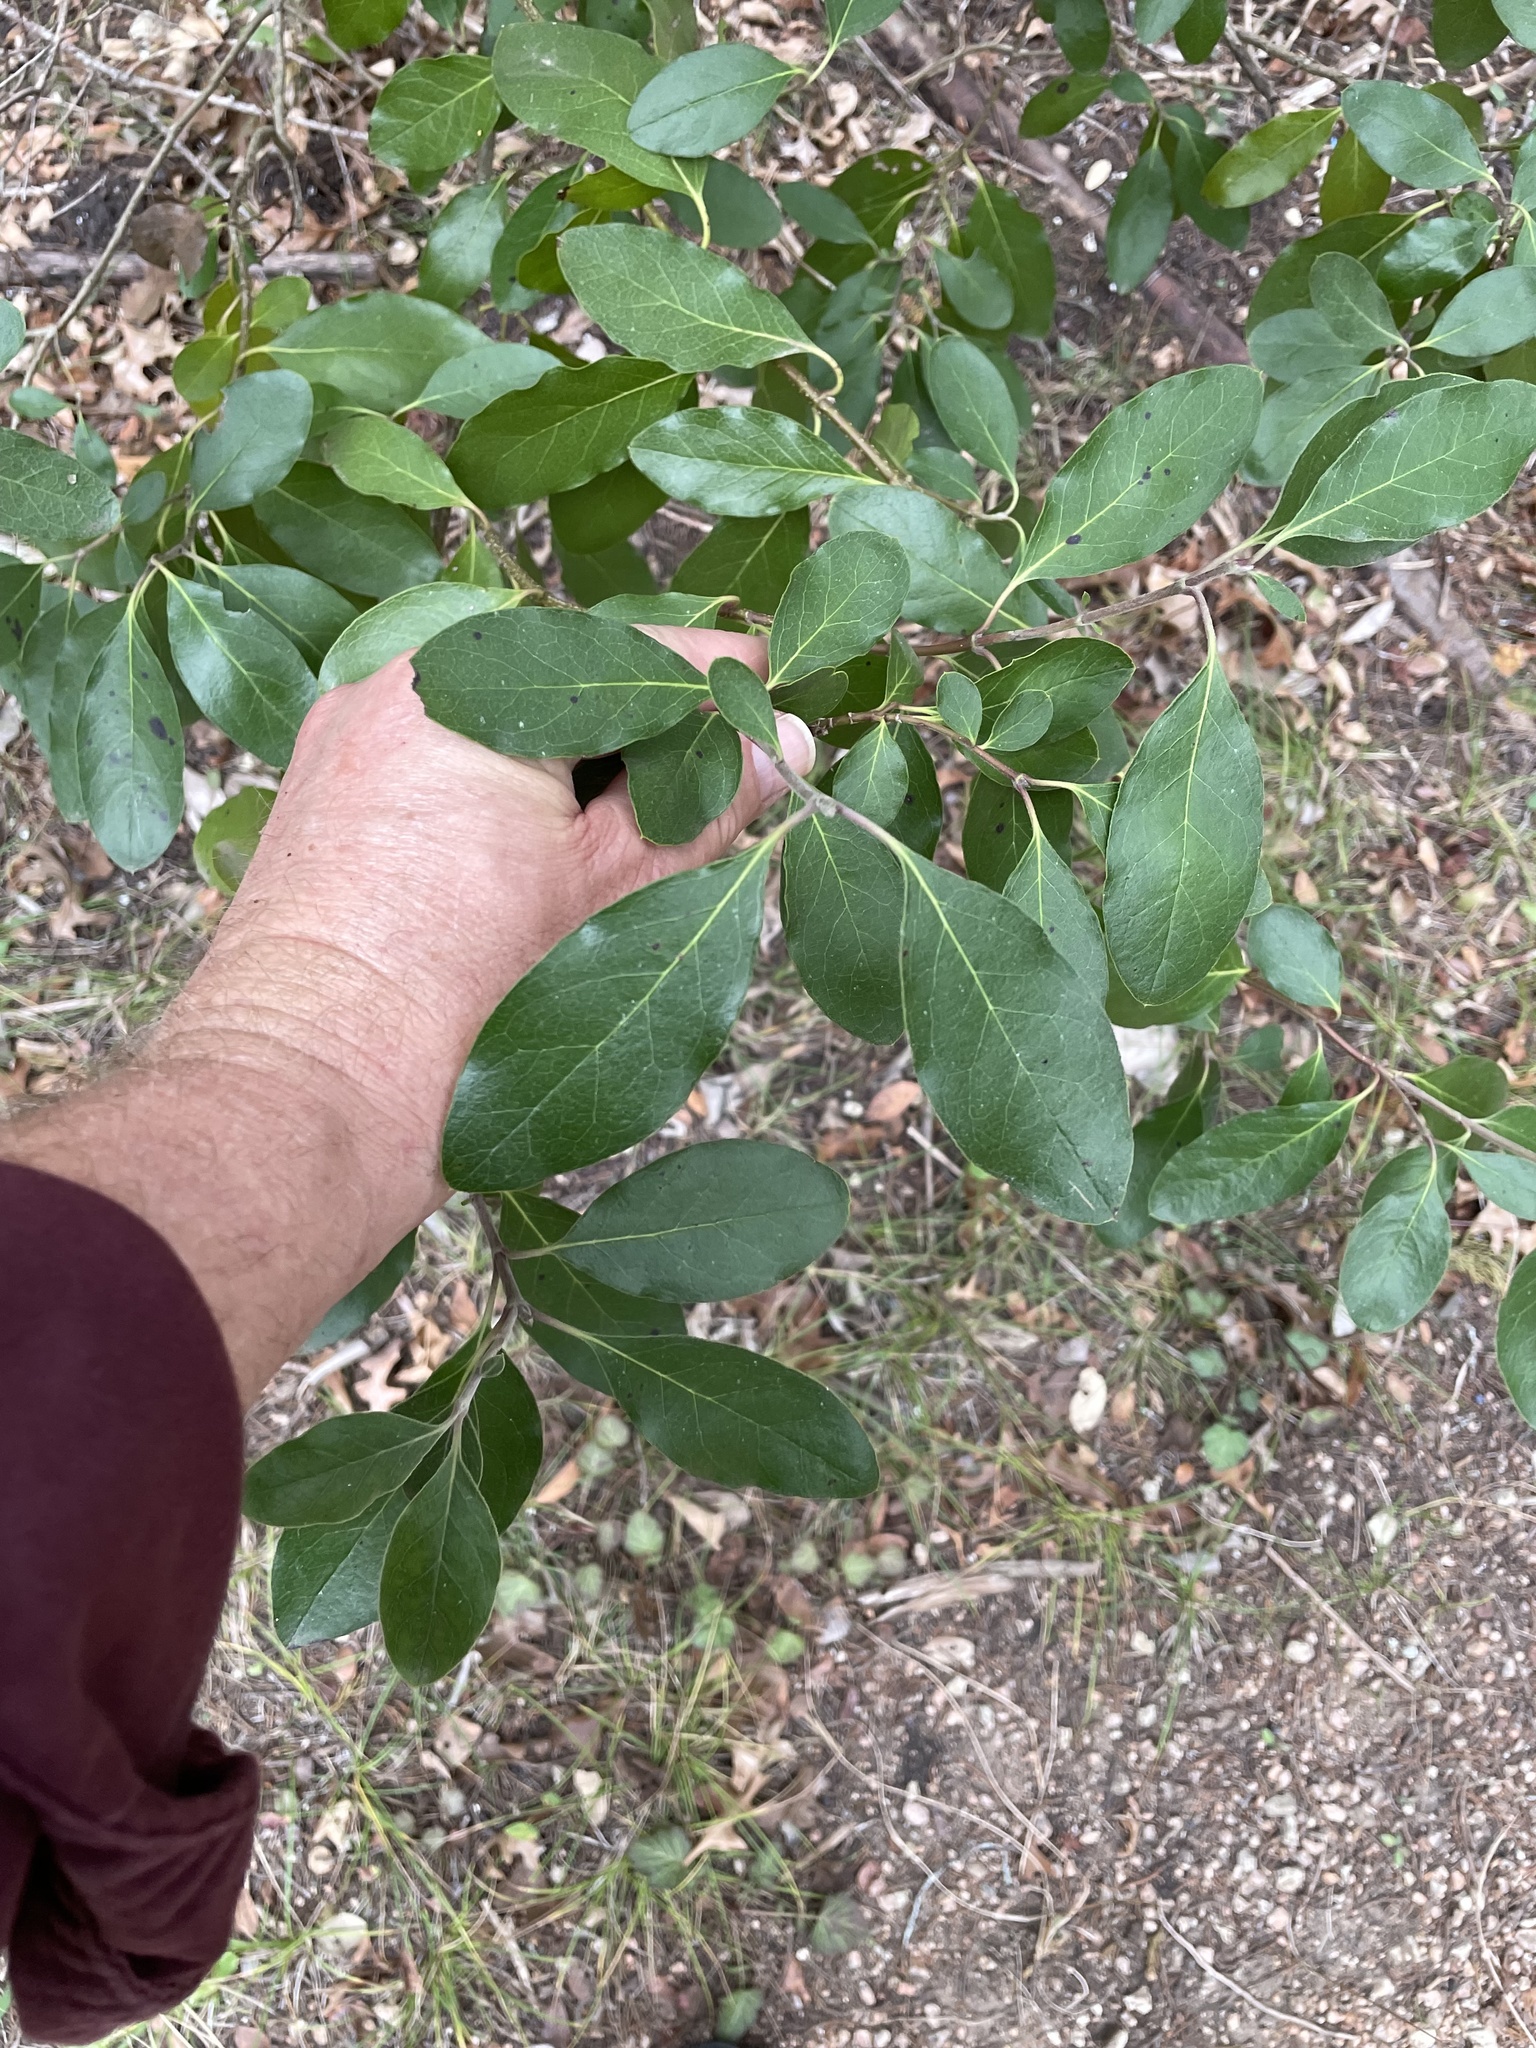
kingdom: Plantae
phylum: Tracheophyta
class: Magnoliopsida
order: Garryales
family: Garryaceae
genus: Garrya
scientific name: Garrya lindheimeri
